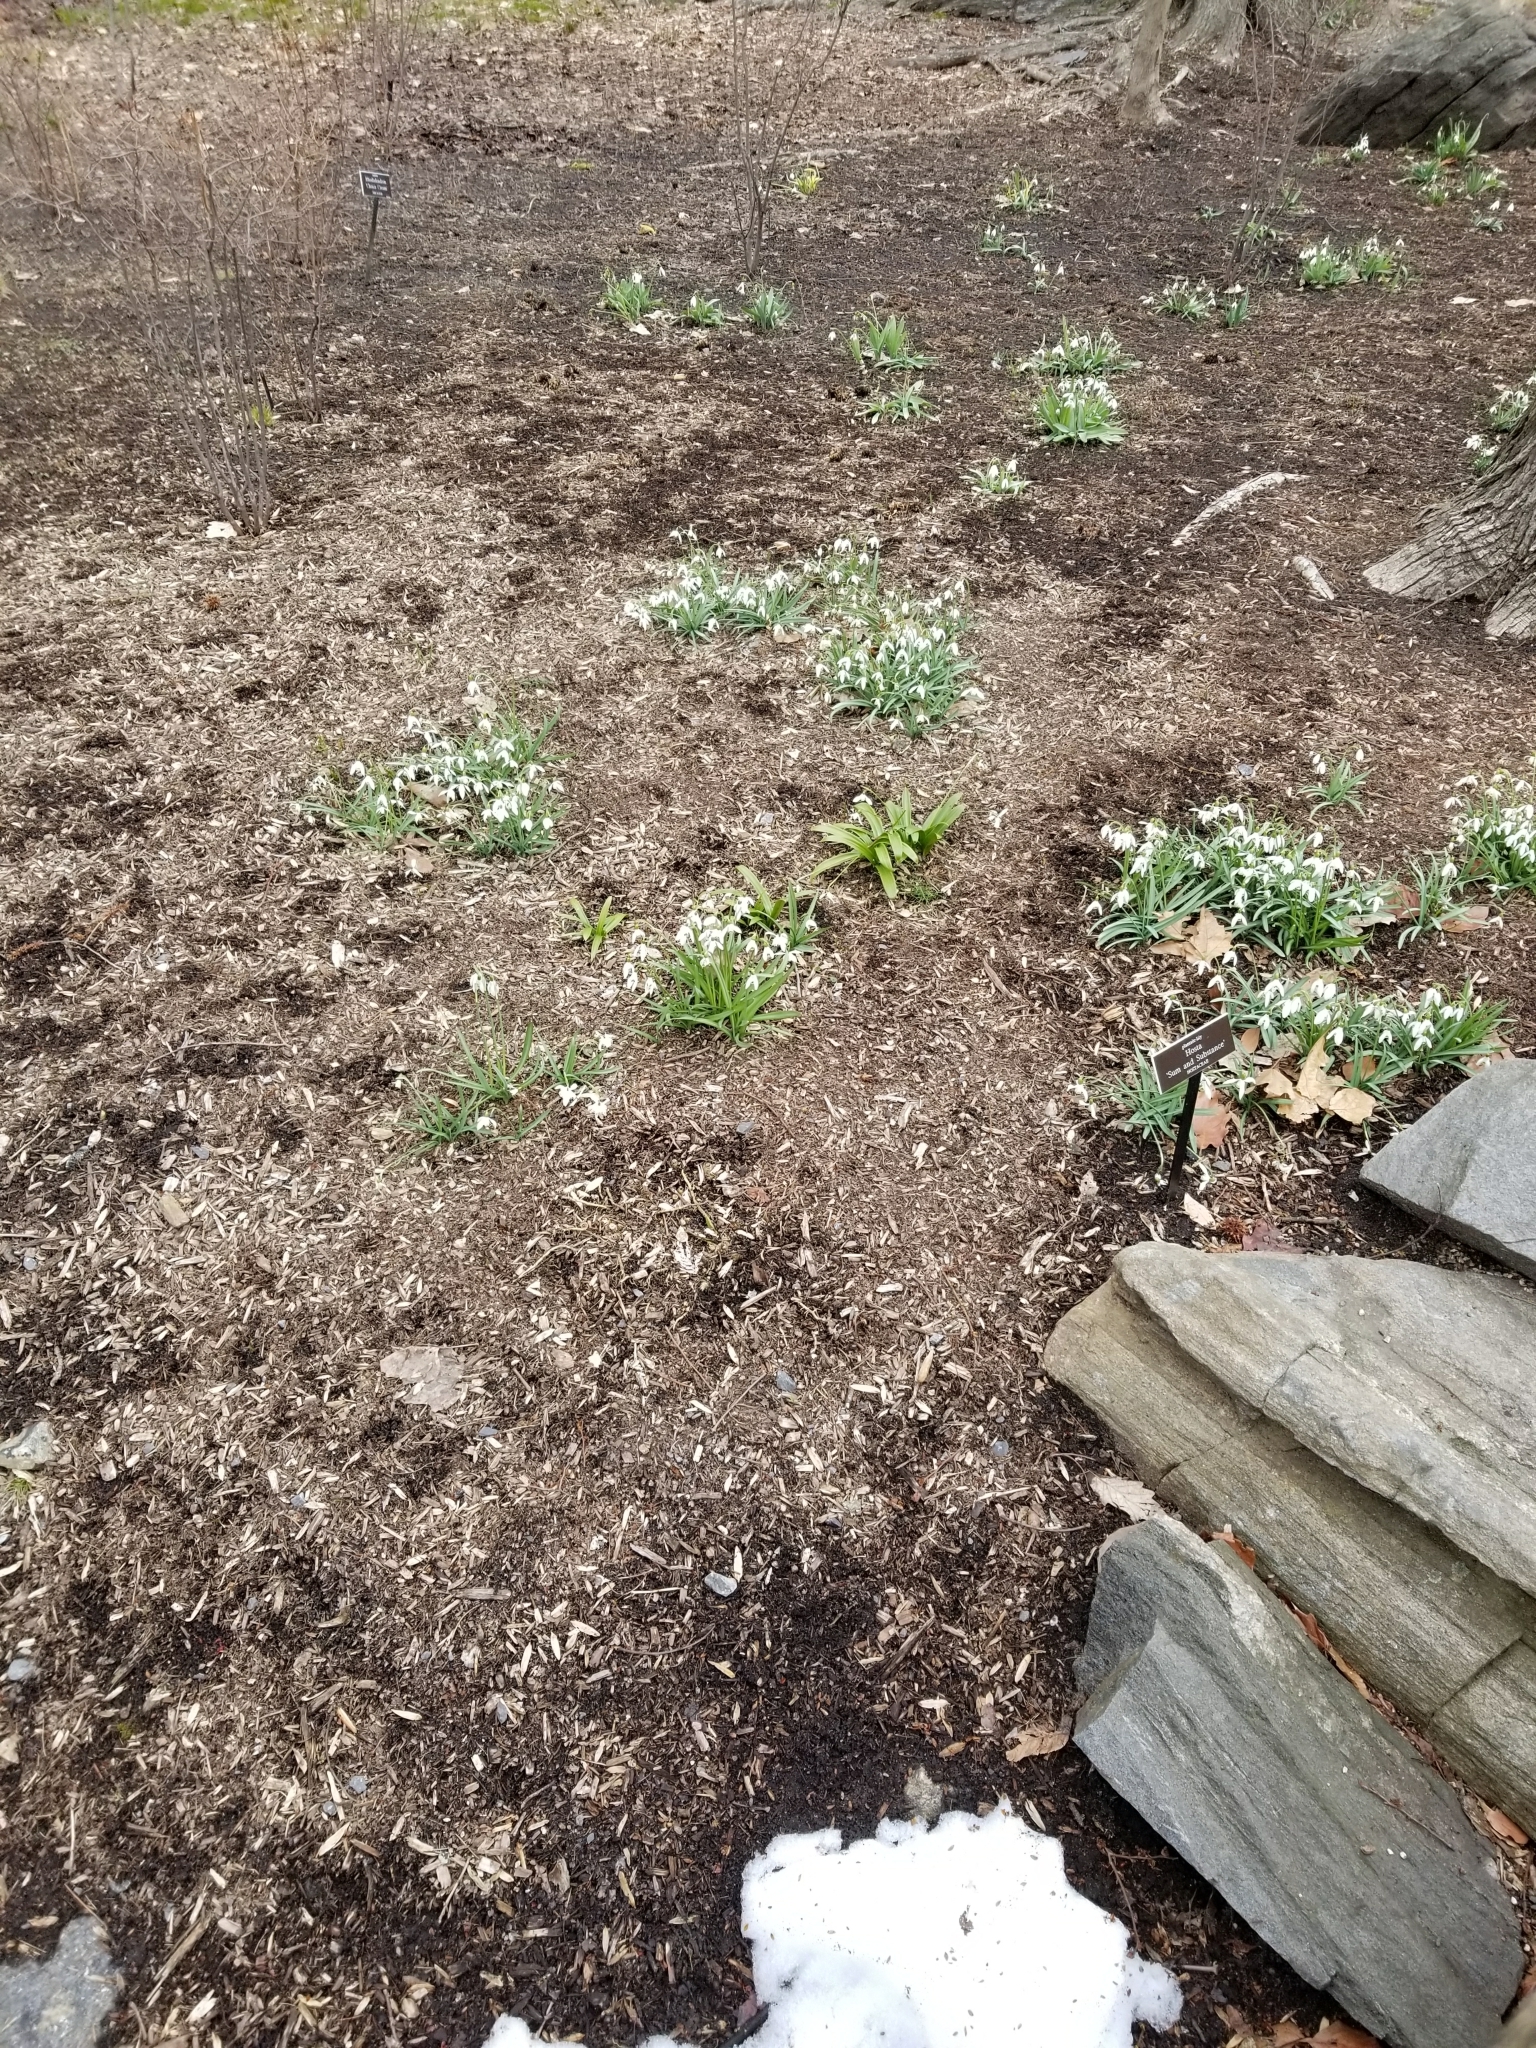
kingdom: Plantae
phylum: Tracheophyta
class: Liliopsida
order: Asparagales
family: Amaryllidaceae
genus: Galanthus
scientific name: Galanthus nivalis
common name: Snowdrop
